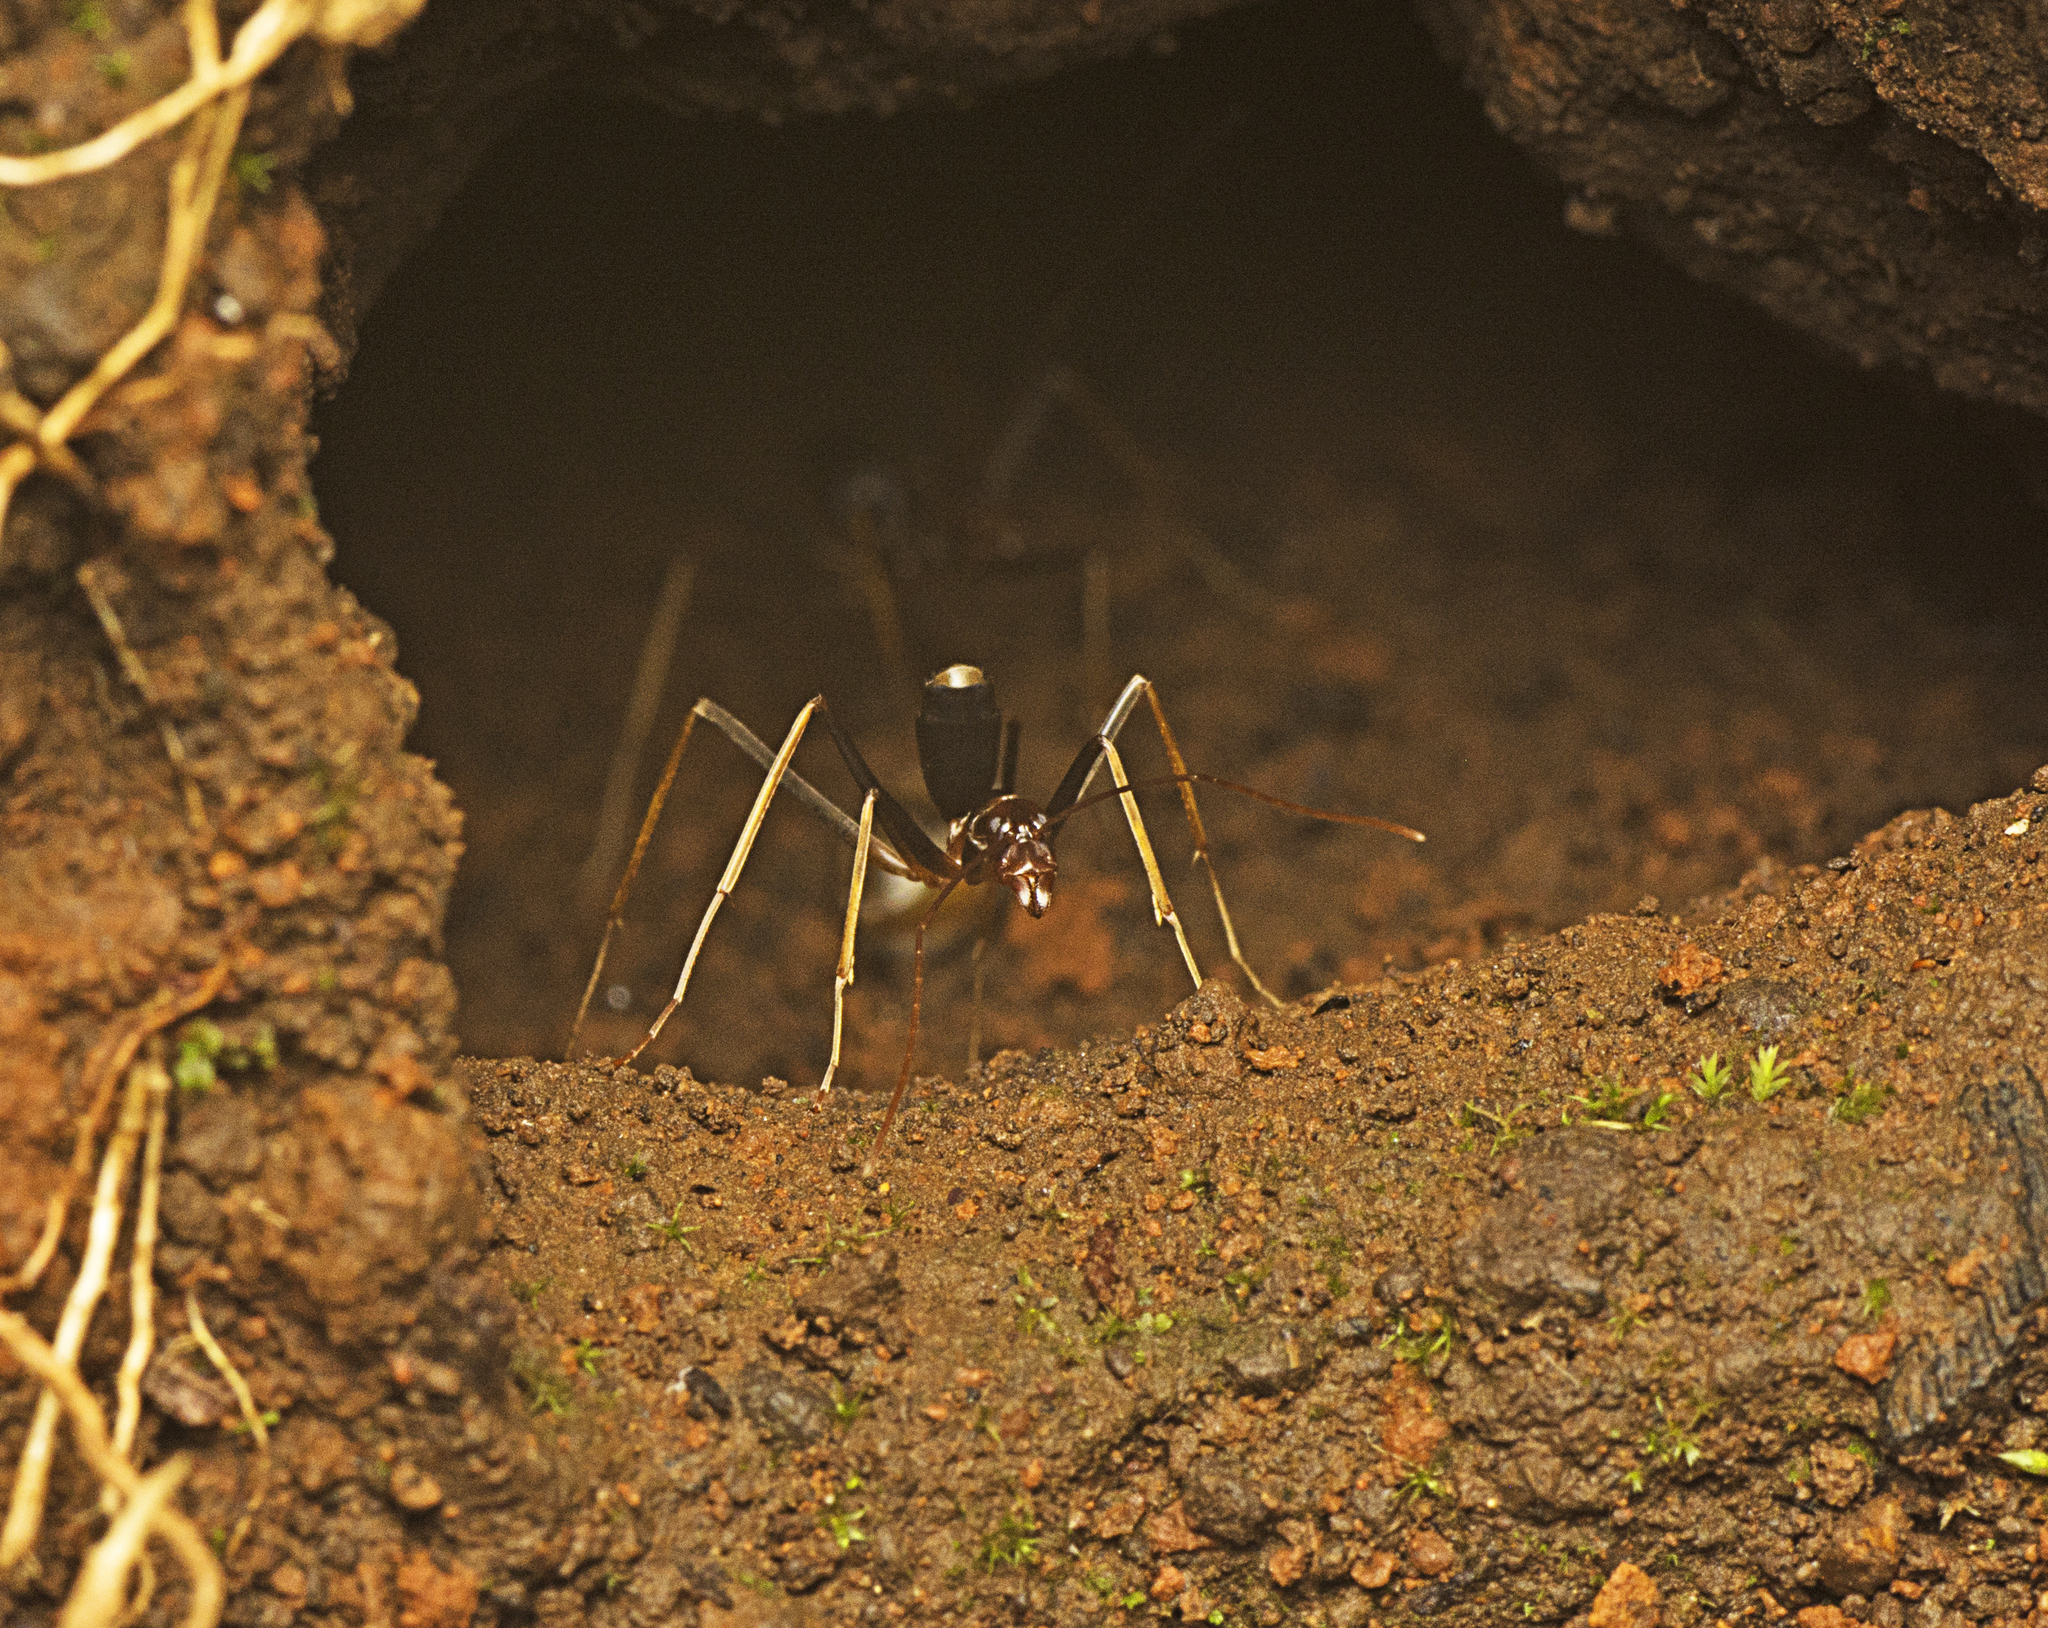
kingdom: Animalia
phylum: Arthropoda
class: Insecta
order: Hymenoptera
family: Formicidae
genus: Leptomyrmex
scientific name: Leptomyrmex rothneyi
